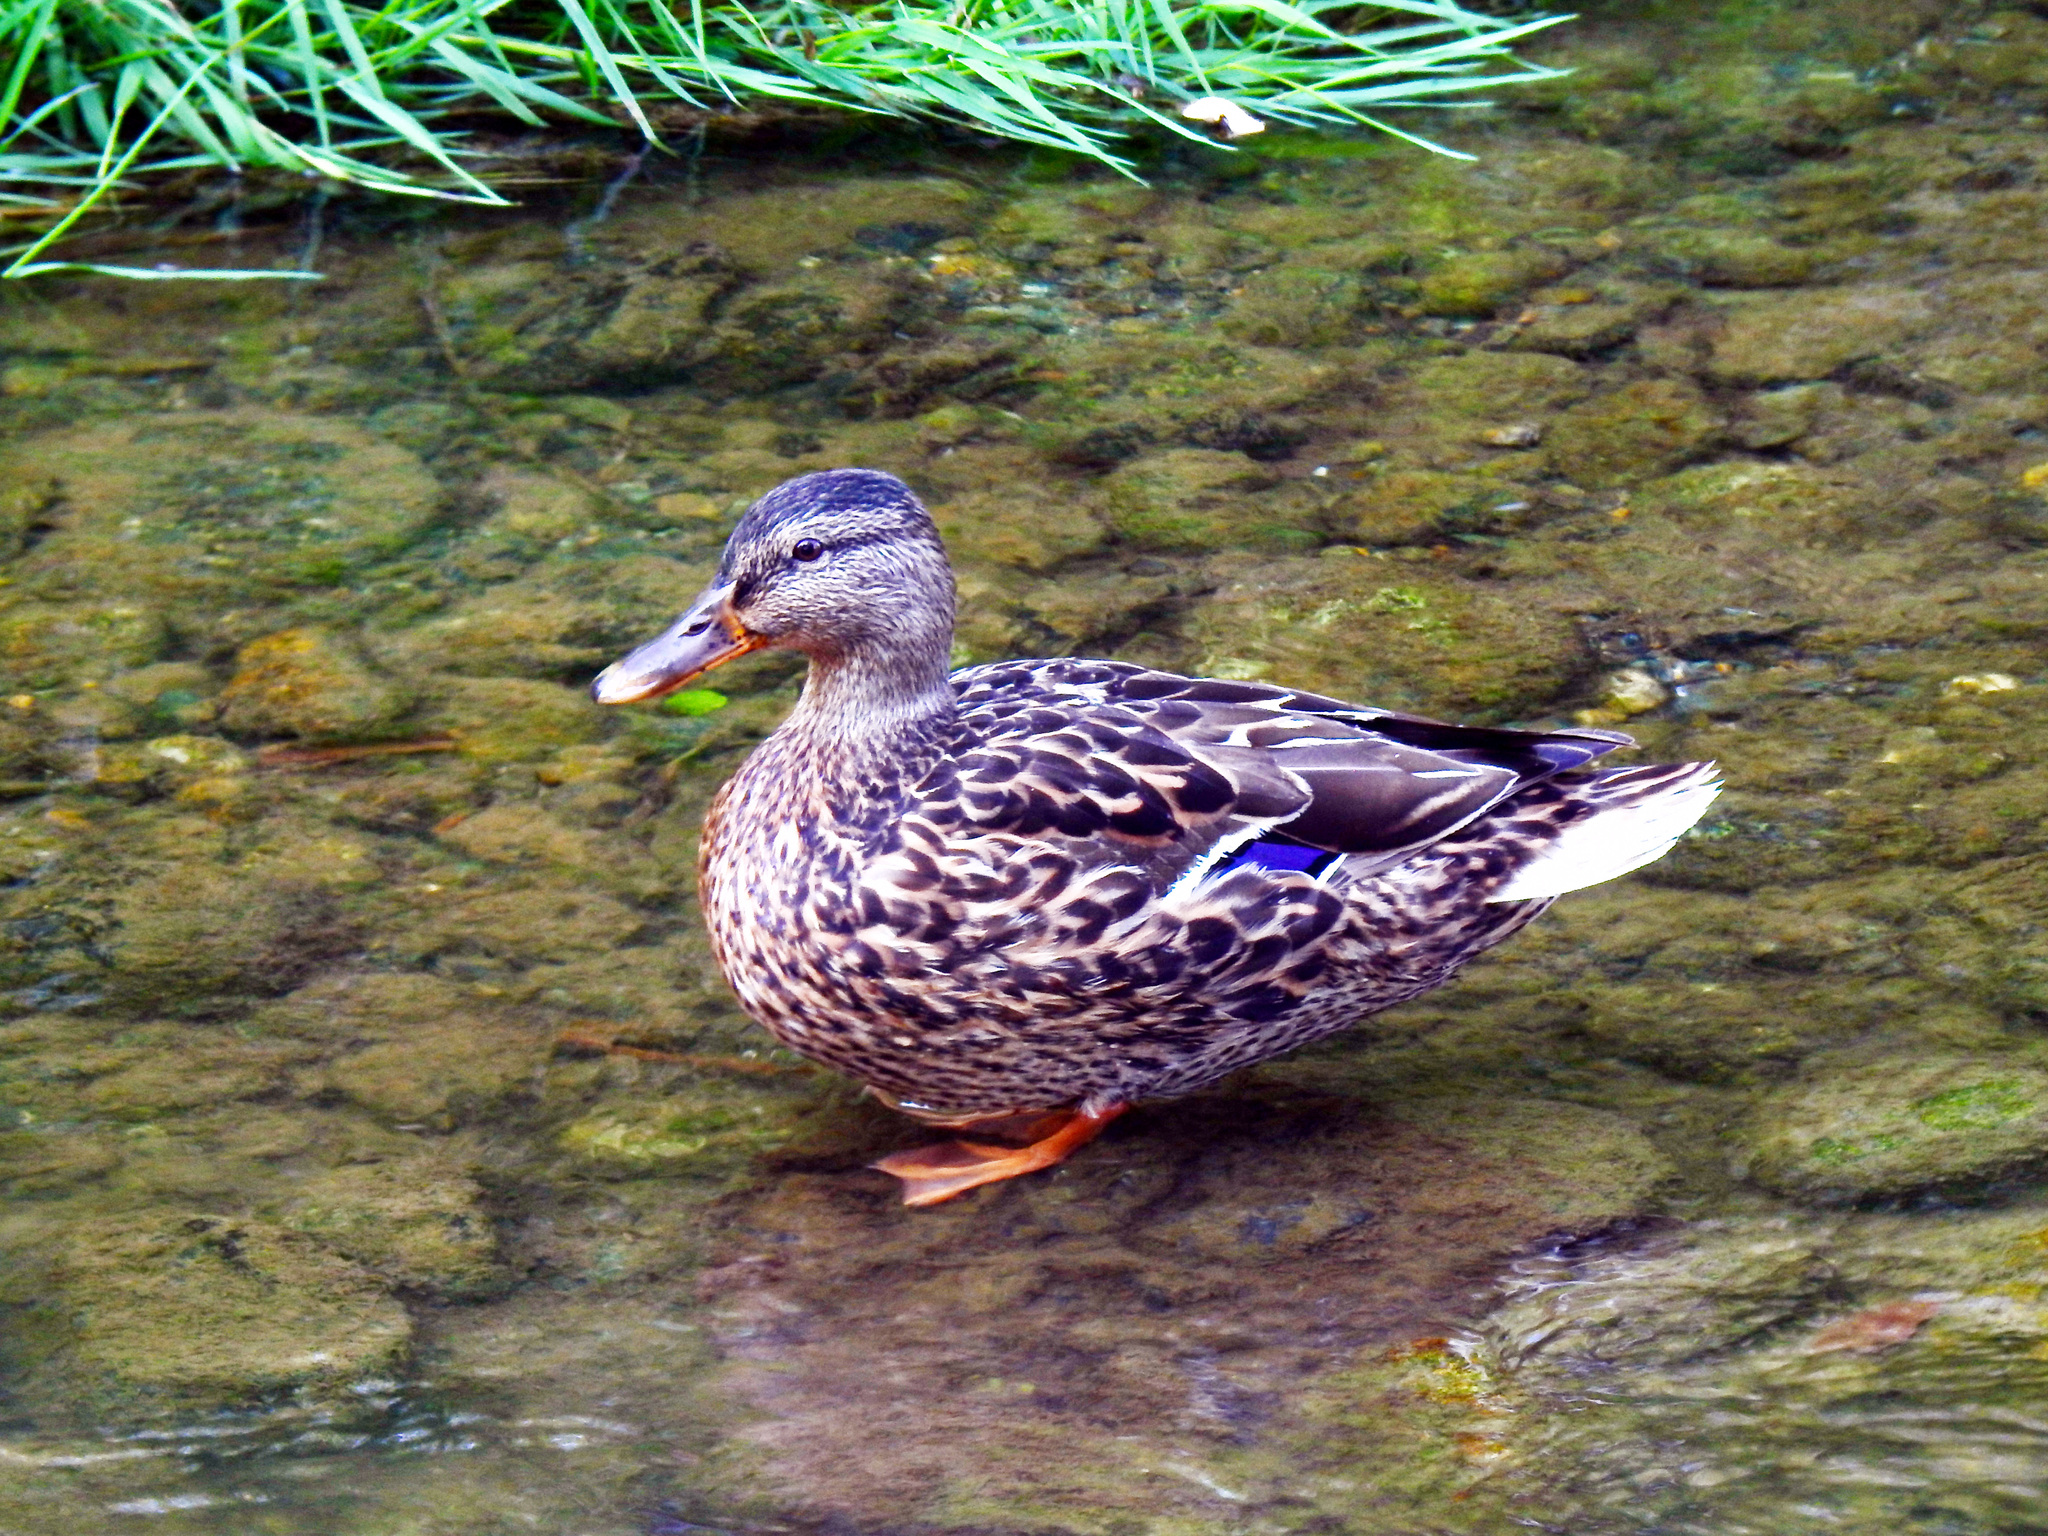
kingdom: Animalia
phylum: Chordata
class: Aves
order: Anseriformes
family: Anatidae
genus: Anas
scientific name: Anas platyrhynchos
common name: Mallard
